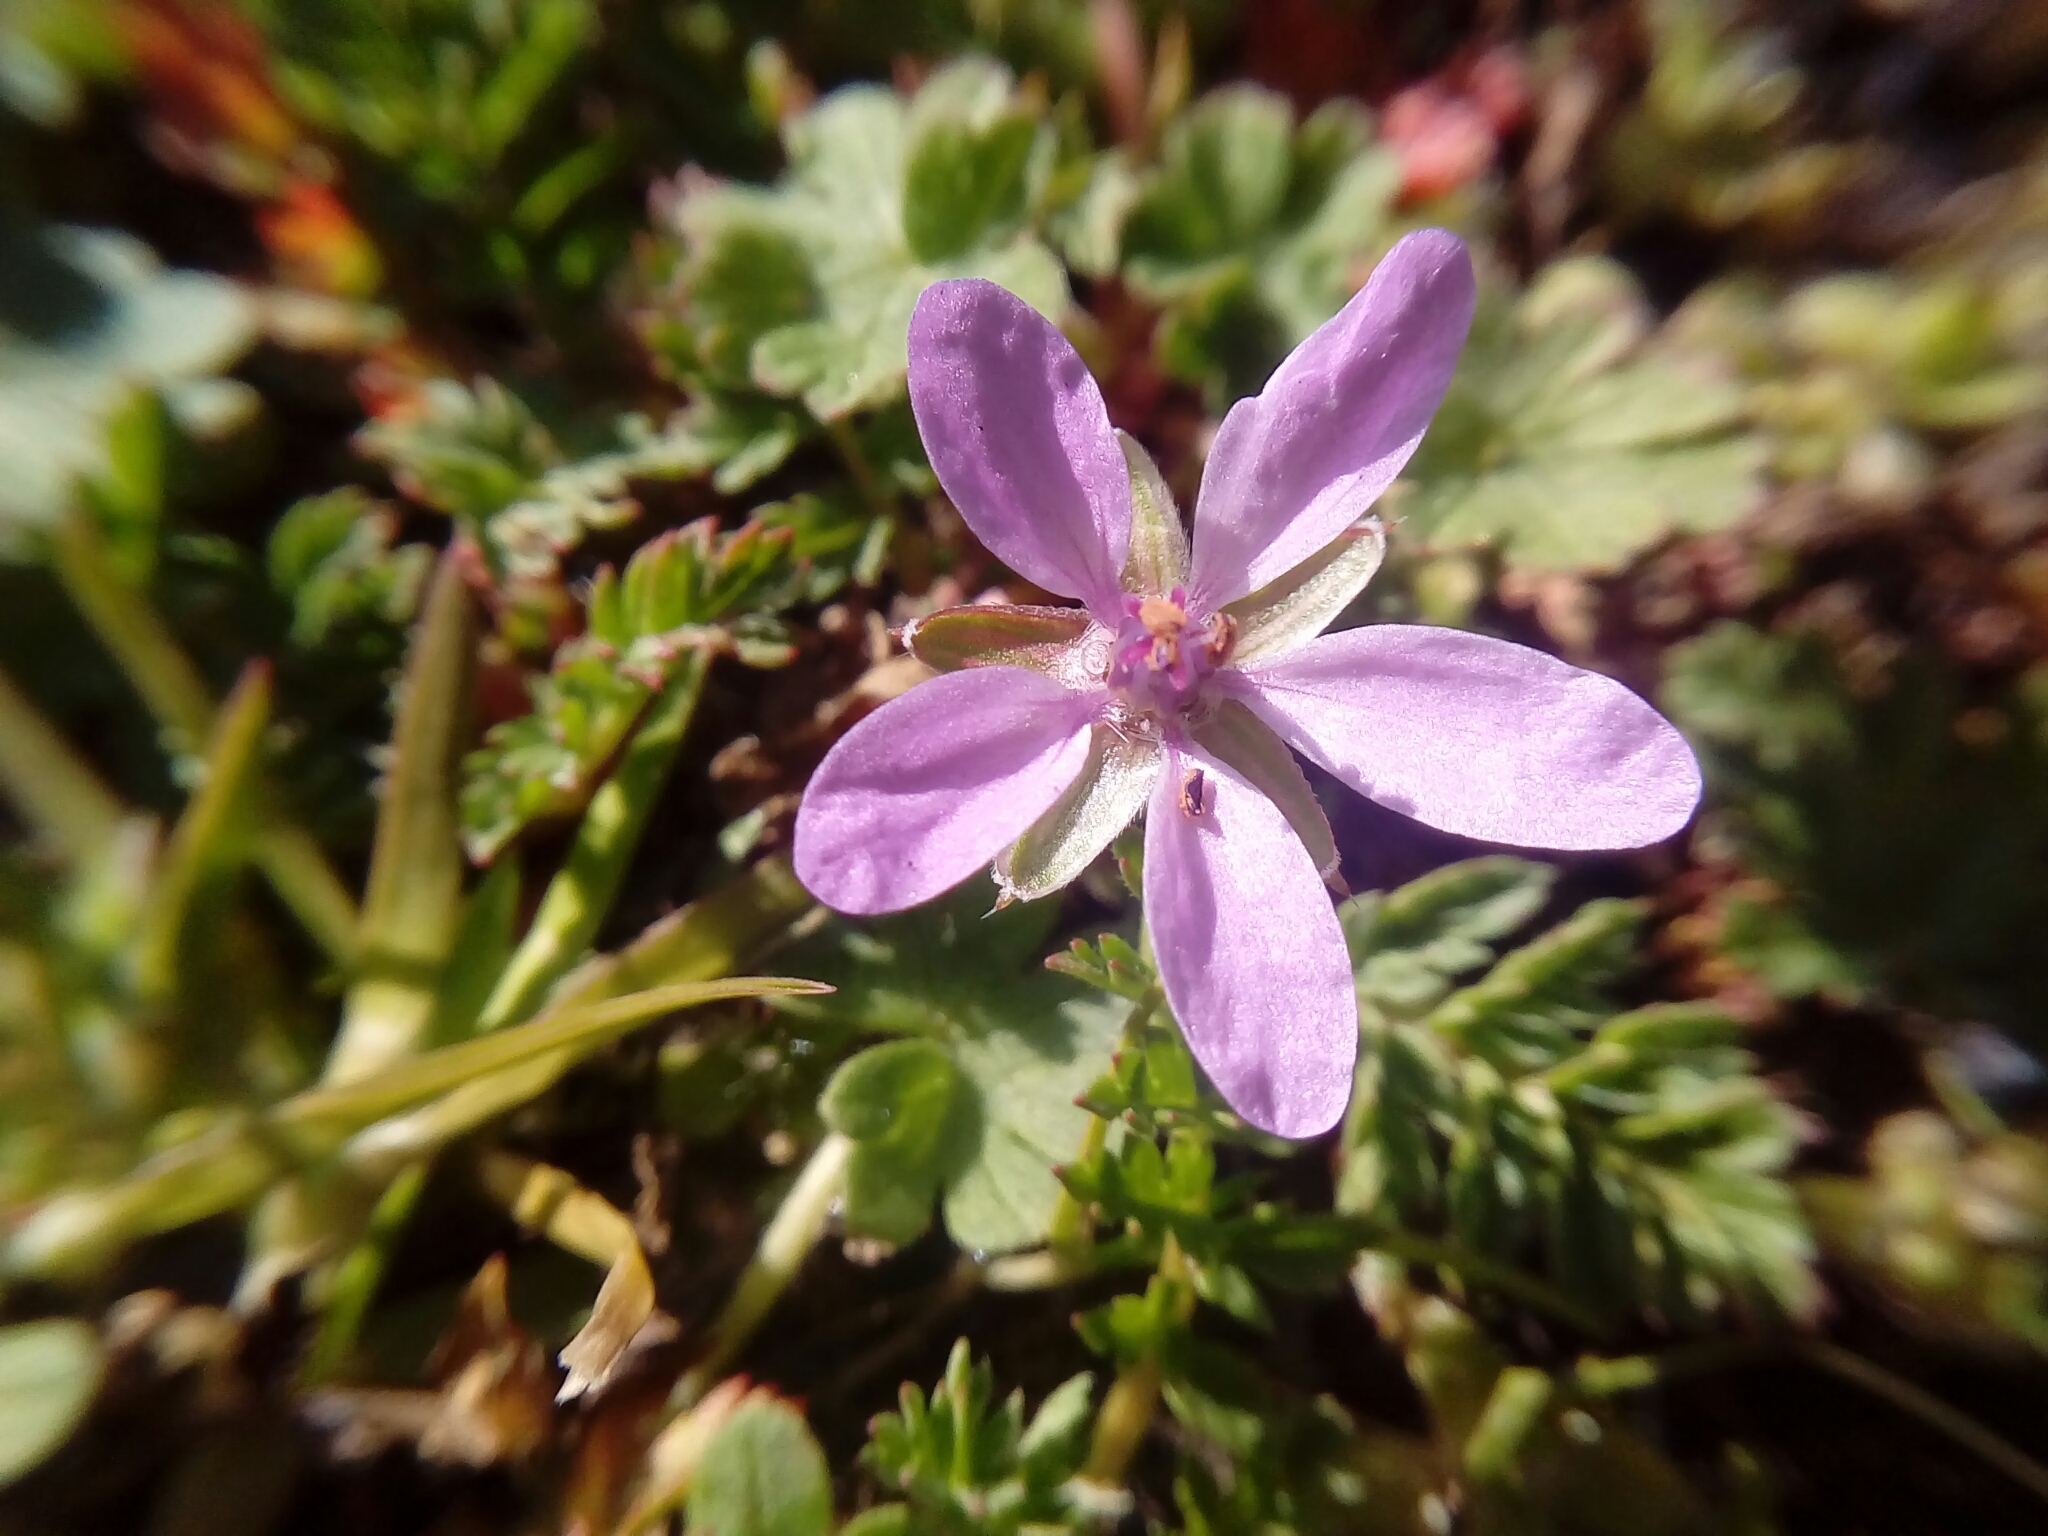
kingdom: Plantae
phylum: Tracheophyta
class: Magnoliopsida
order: Geraniales
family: Geraniaceae
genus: Erodium
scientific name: Erodium cicutarium
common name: Common stork's-bill
